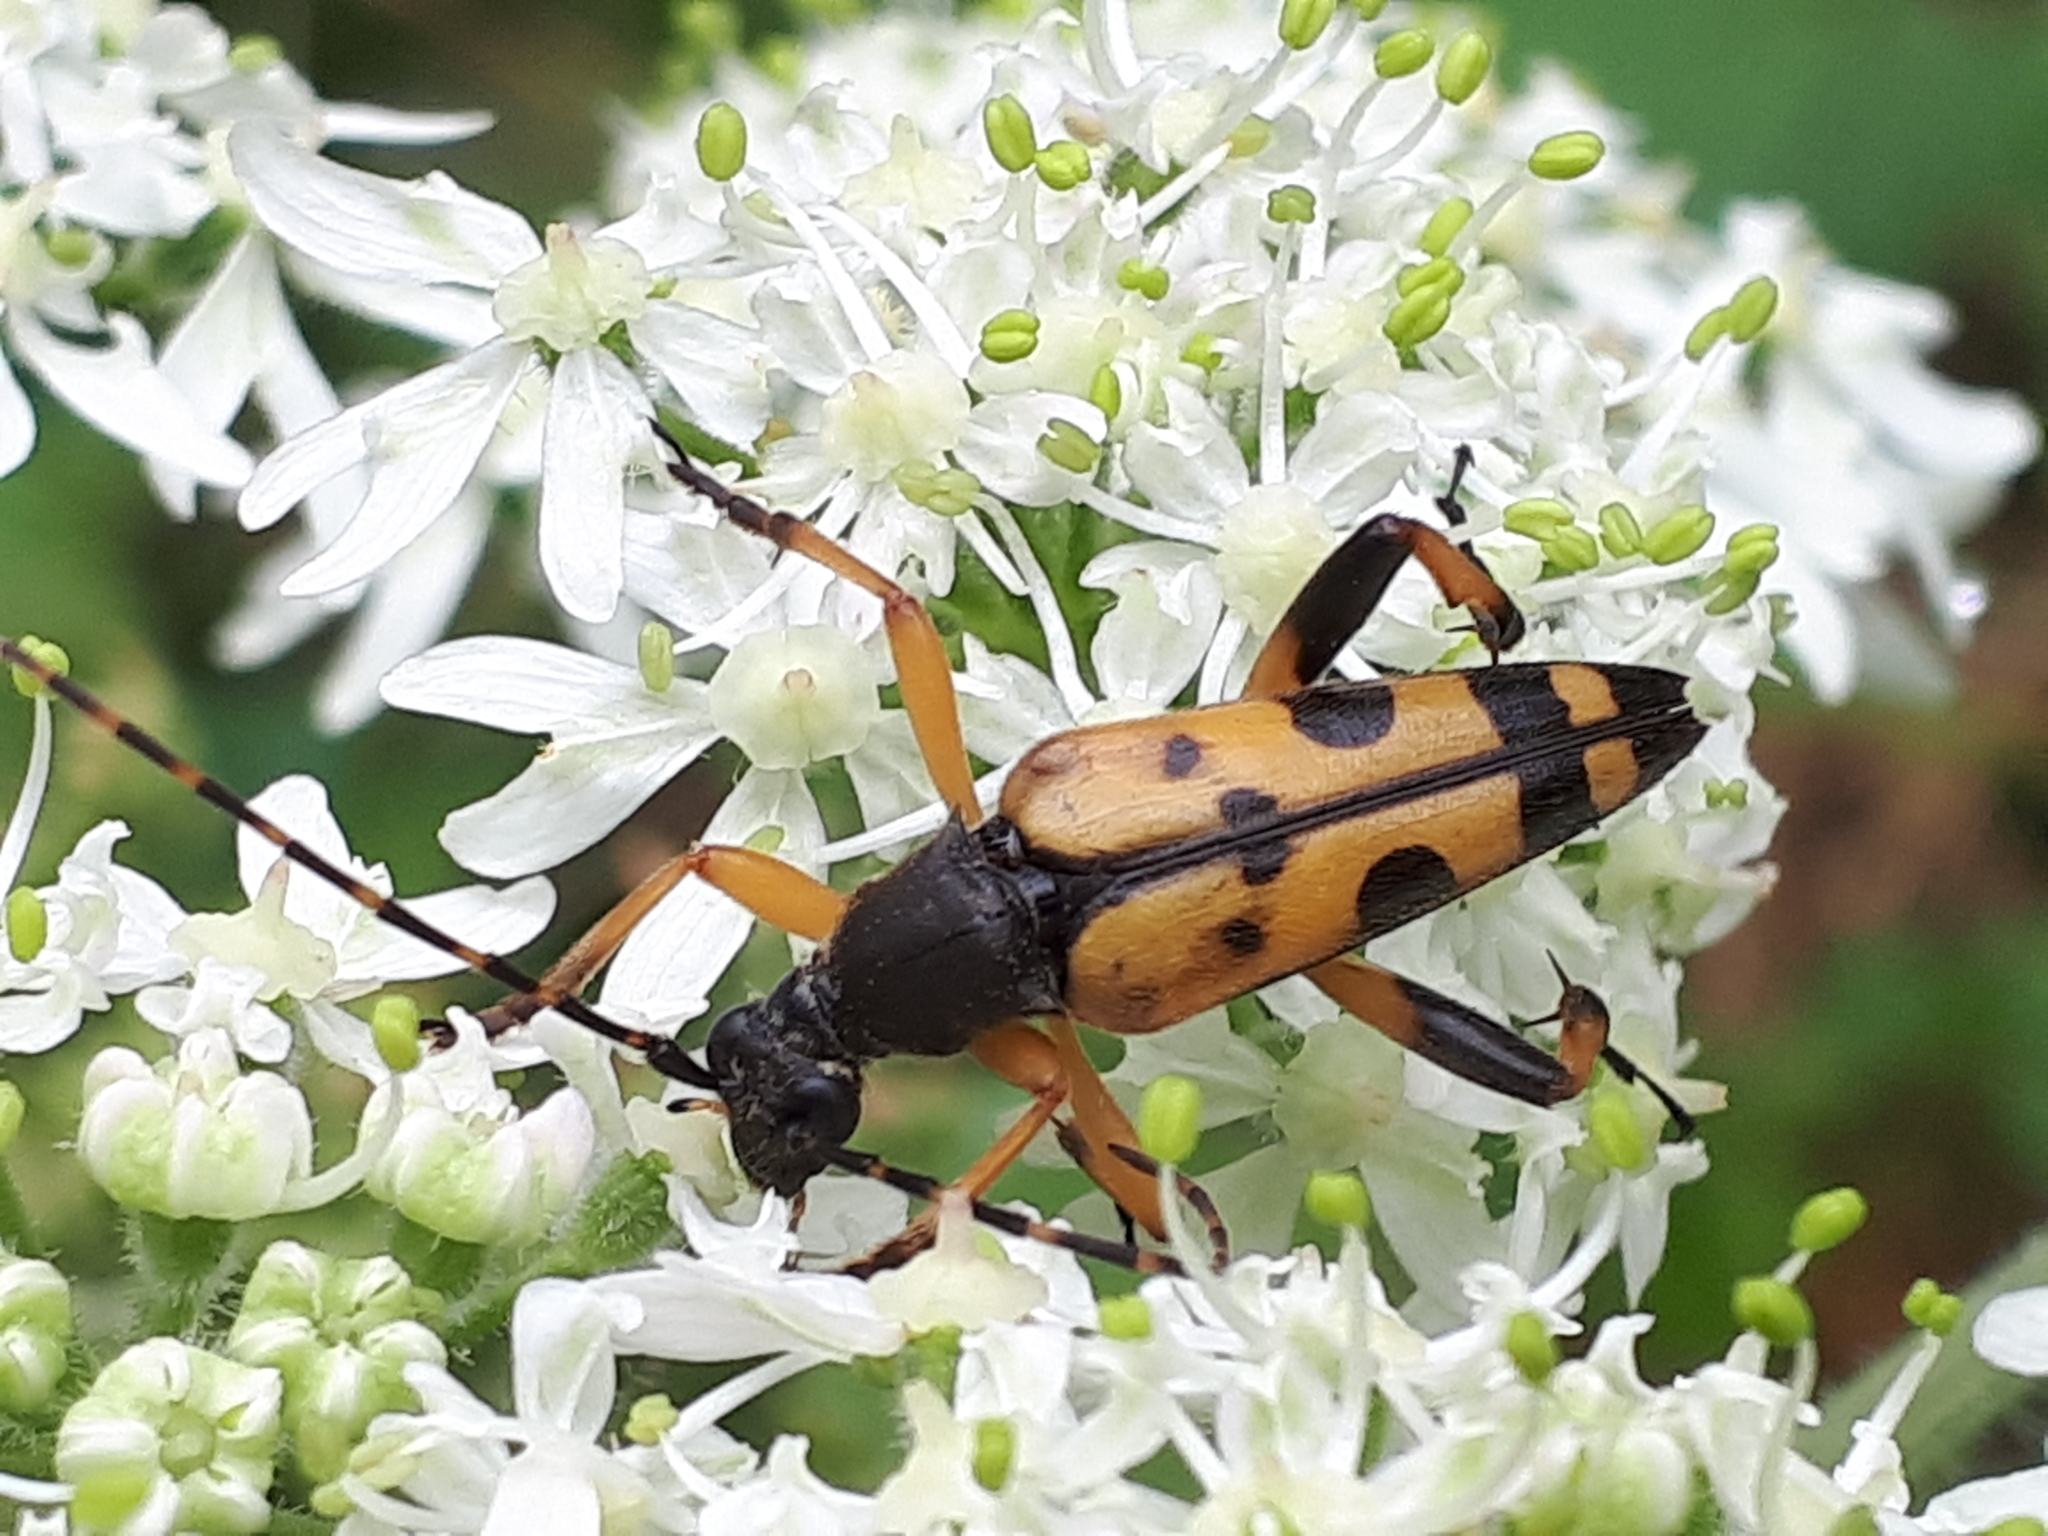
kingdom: Animalia
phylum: Arthropoda
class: Insecta
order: Coleoptera
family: Cerambycidae
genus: Rutpela
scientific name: Rutpela maculata
